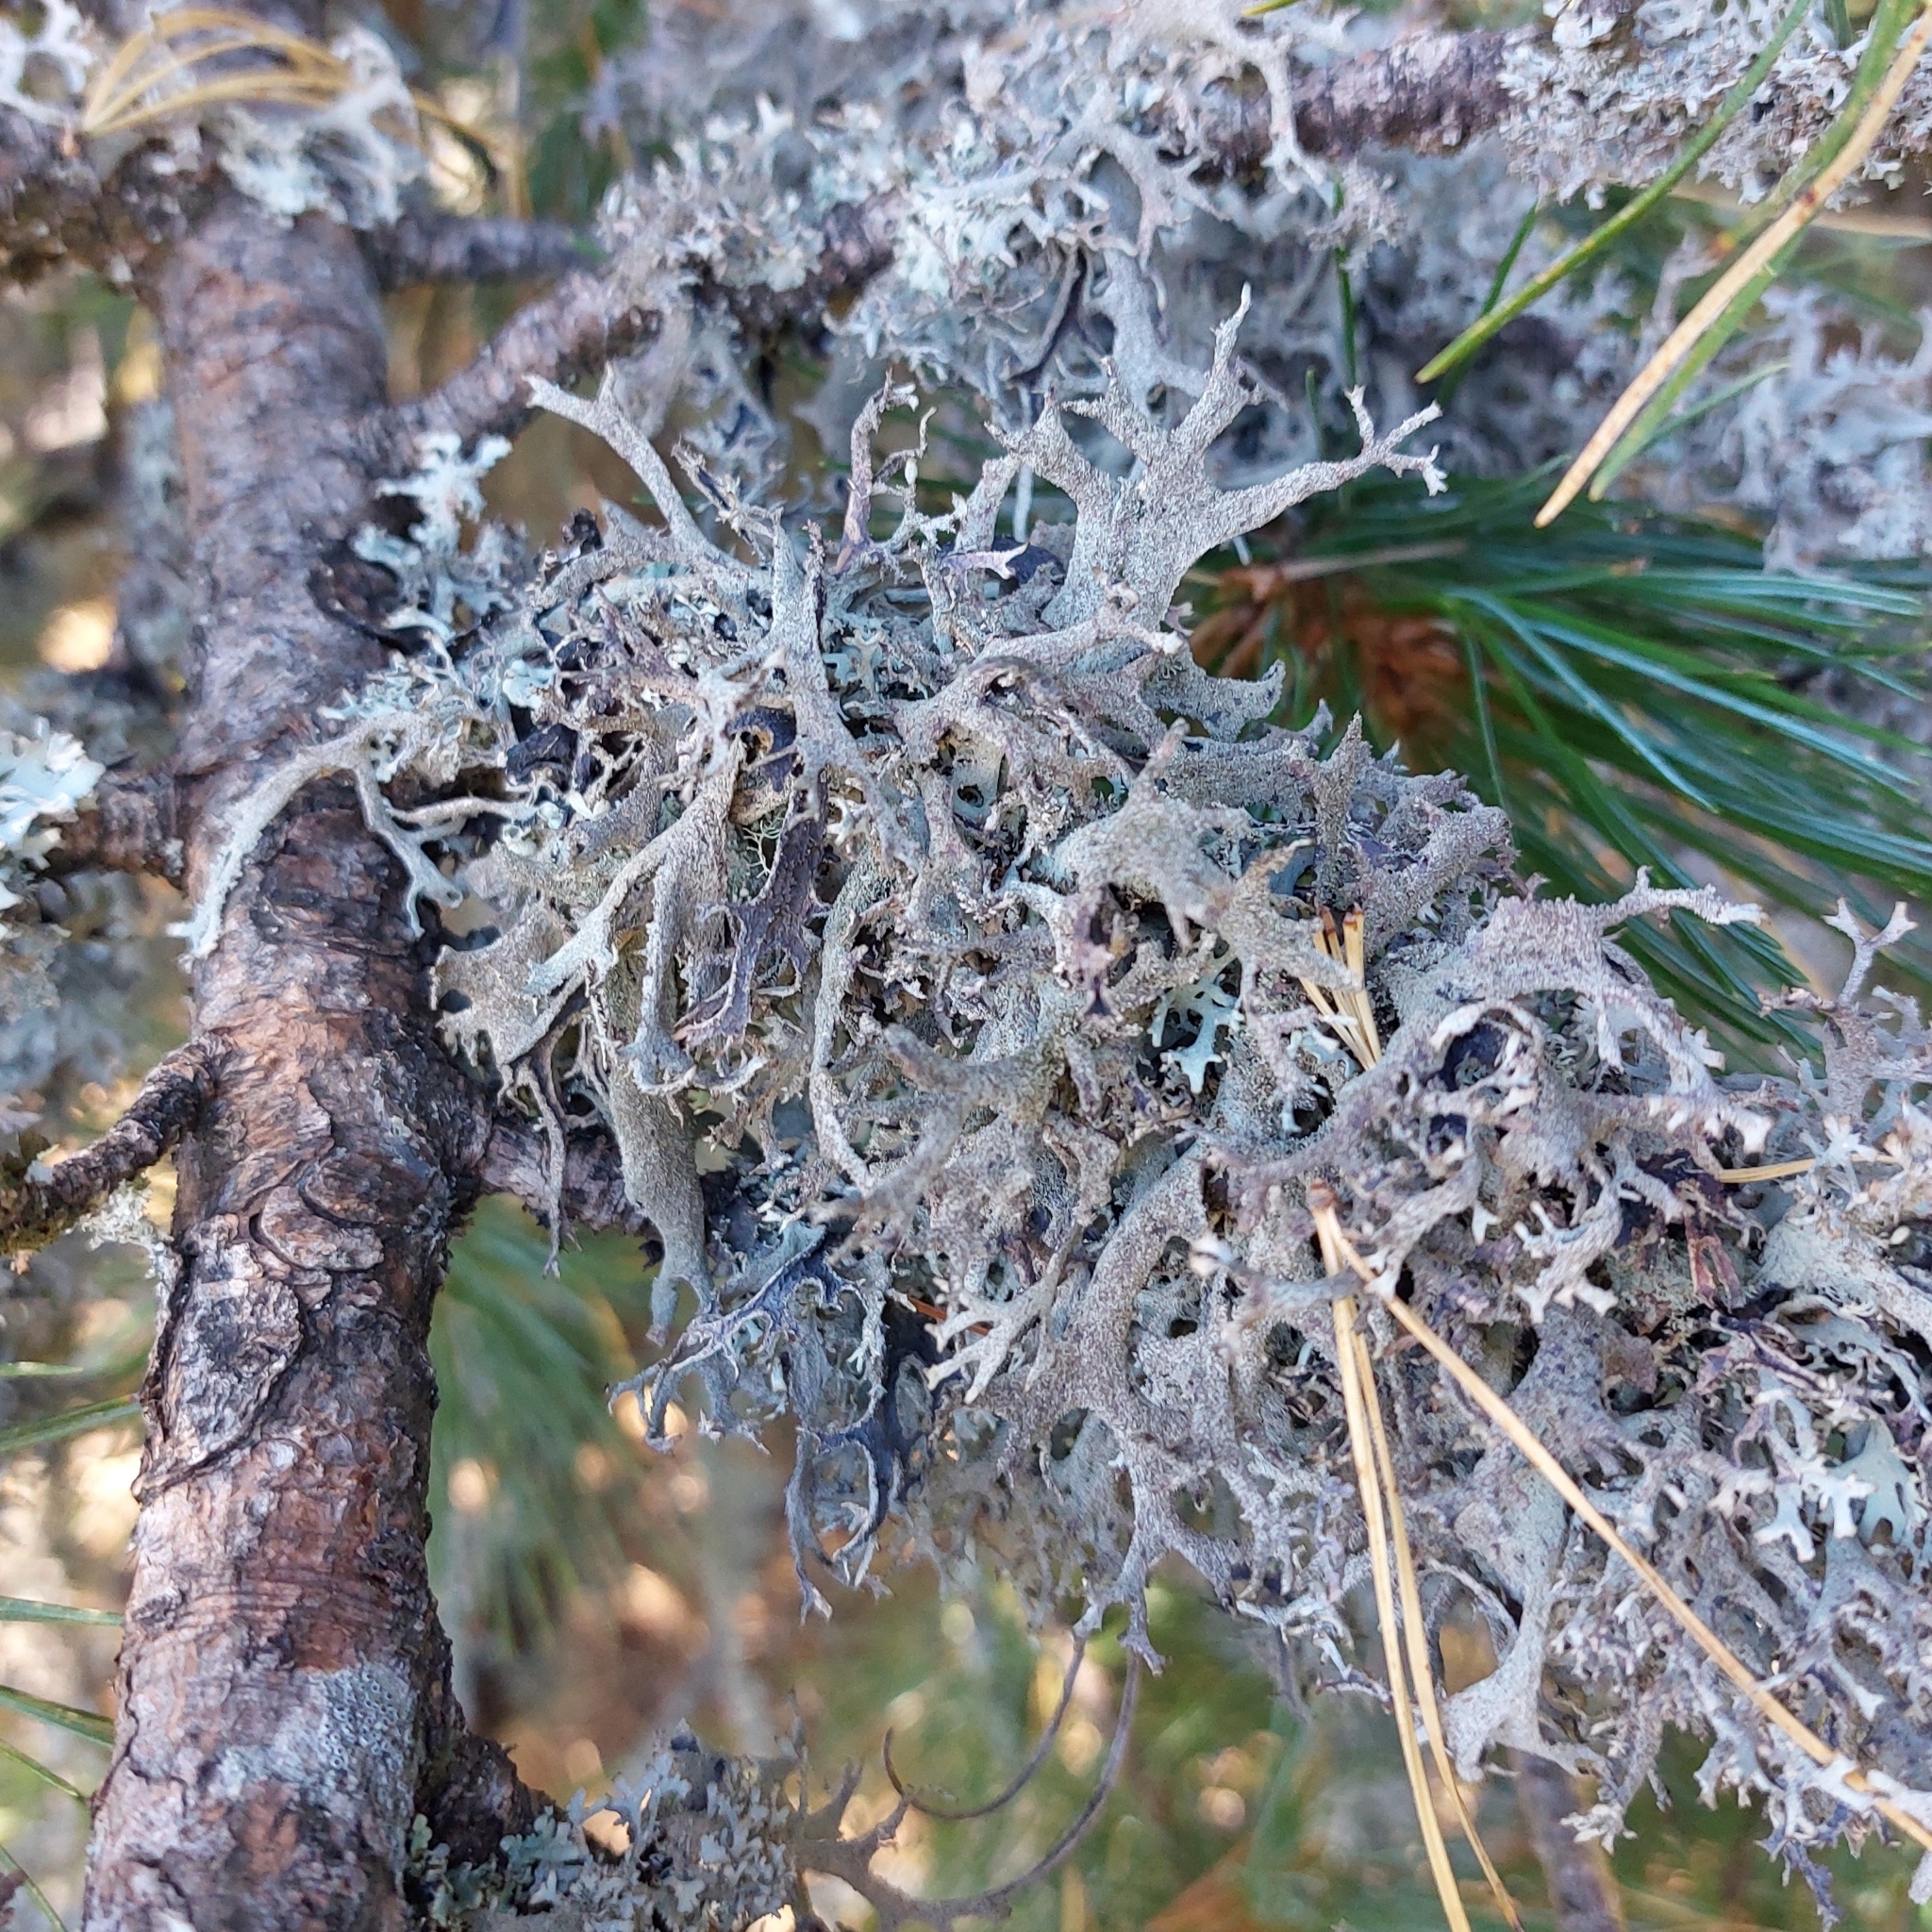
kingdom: Fungi
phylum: Ascomycota
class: Lecanoromycetes
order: Lecanorales
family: Parmeliaceae
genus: Pseudevernia
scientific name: Pseudevernia furfuracea
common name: Tree moss
